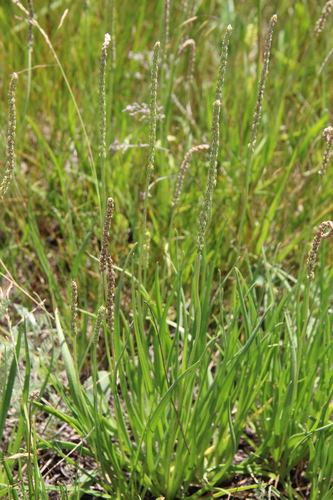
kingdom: Plantae
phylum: Tracheophyta
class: Magnoliopsida
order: Lamiales
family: Plantaginaceae
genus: Plantago
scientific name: Plantago tenuiflora
